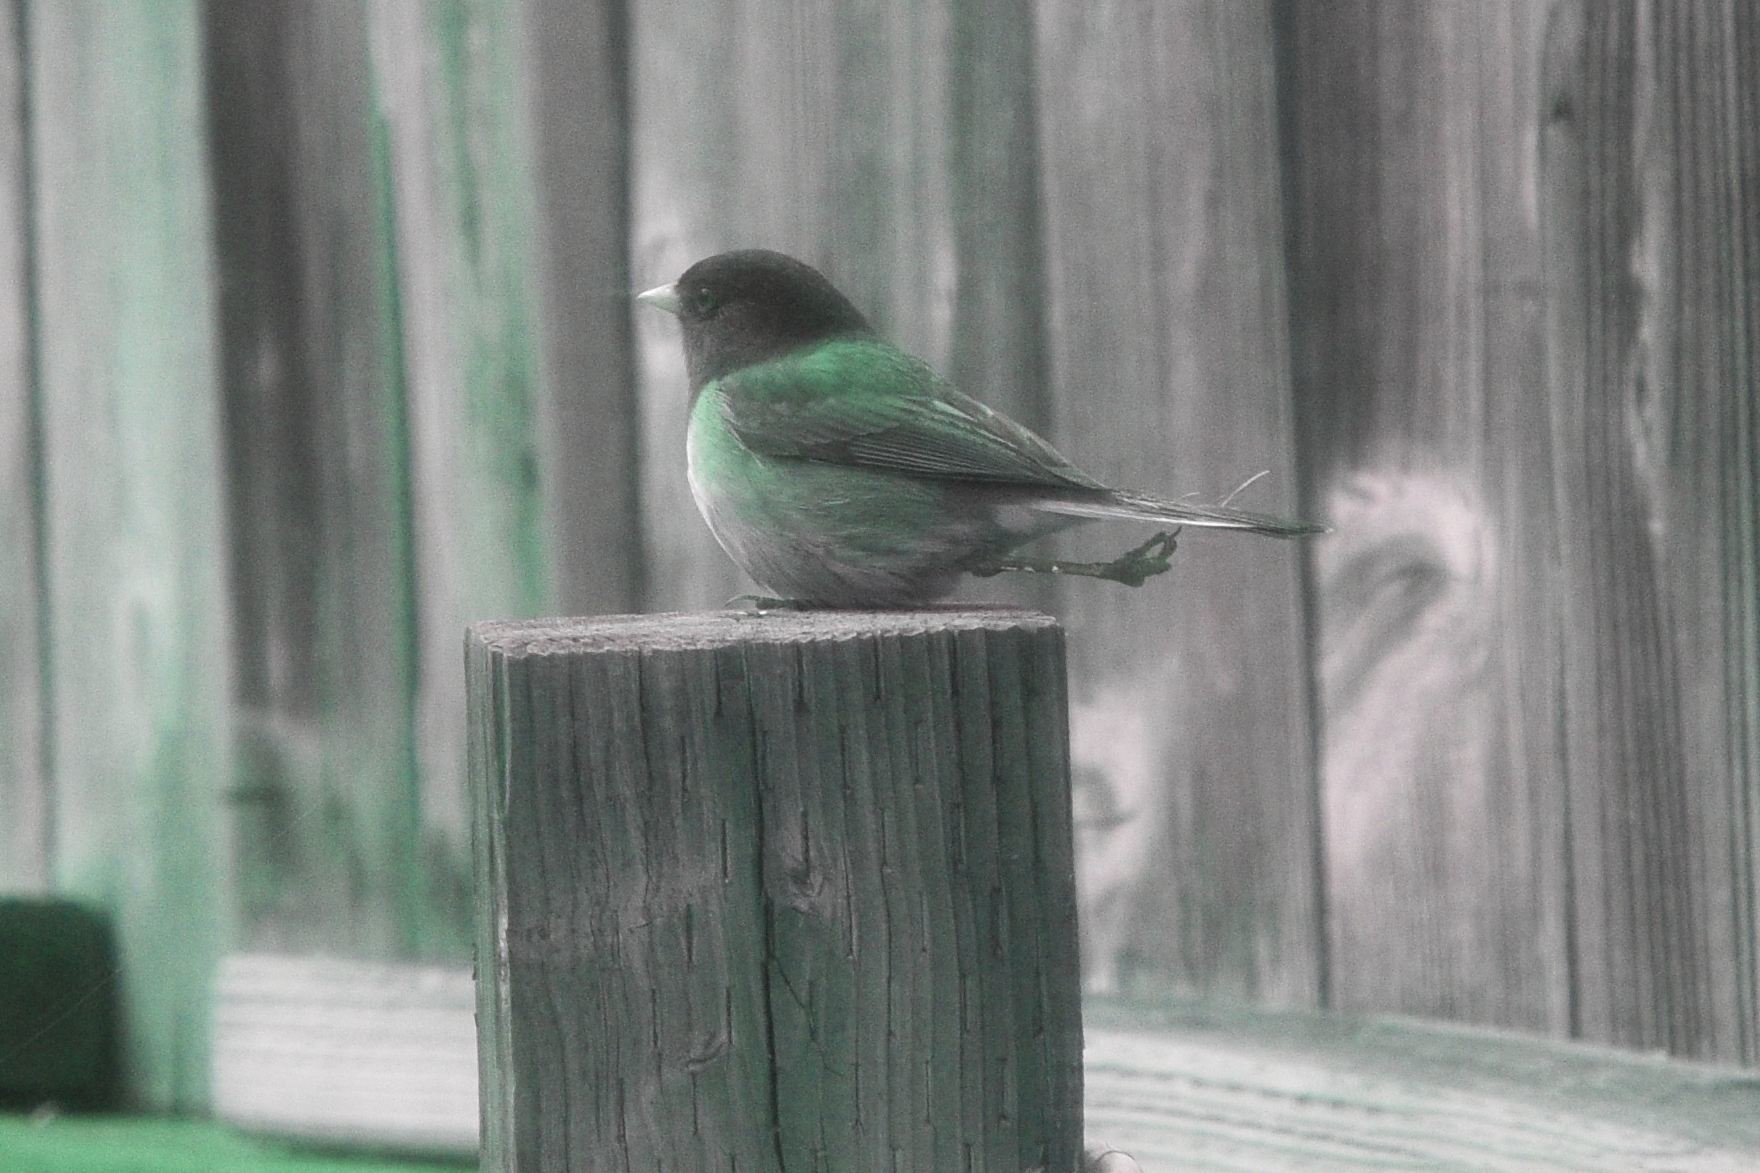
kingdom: Animalia
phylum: Chordata
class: Aves
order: Passeriformes
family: Passerellidae
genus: Junco
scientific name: Junco hyemalis
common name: Dark-eyed junco
